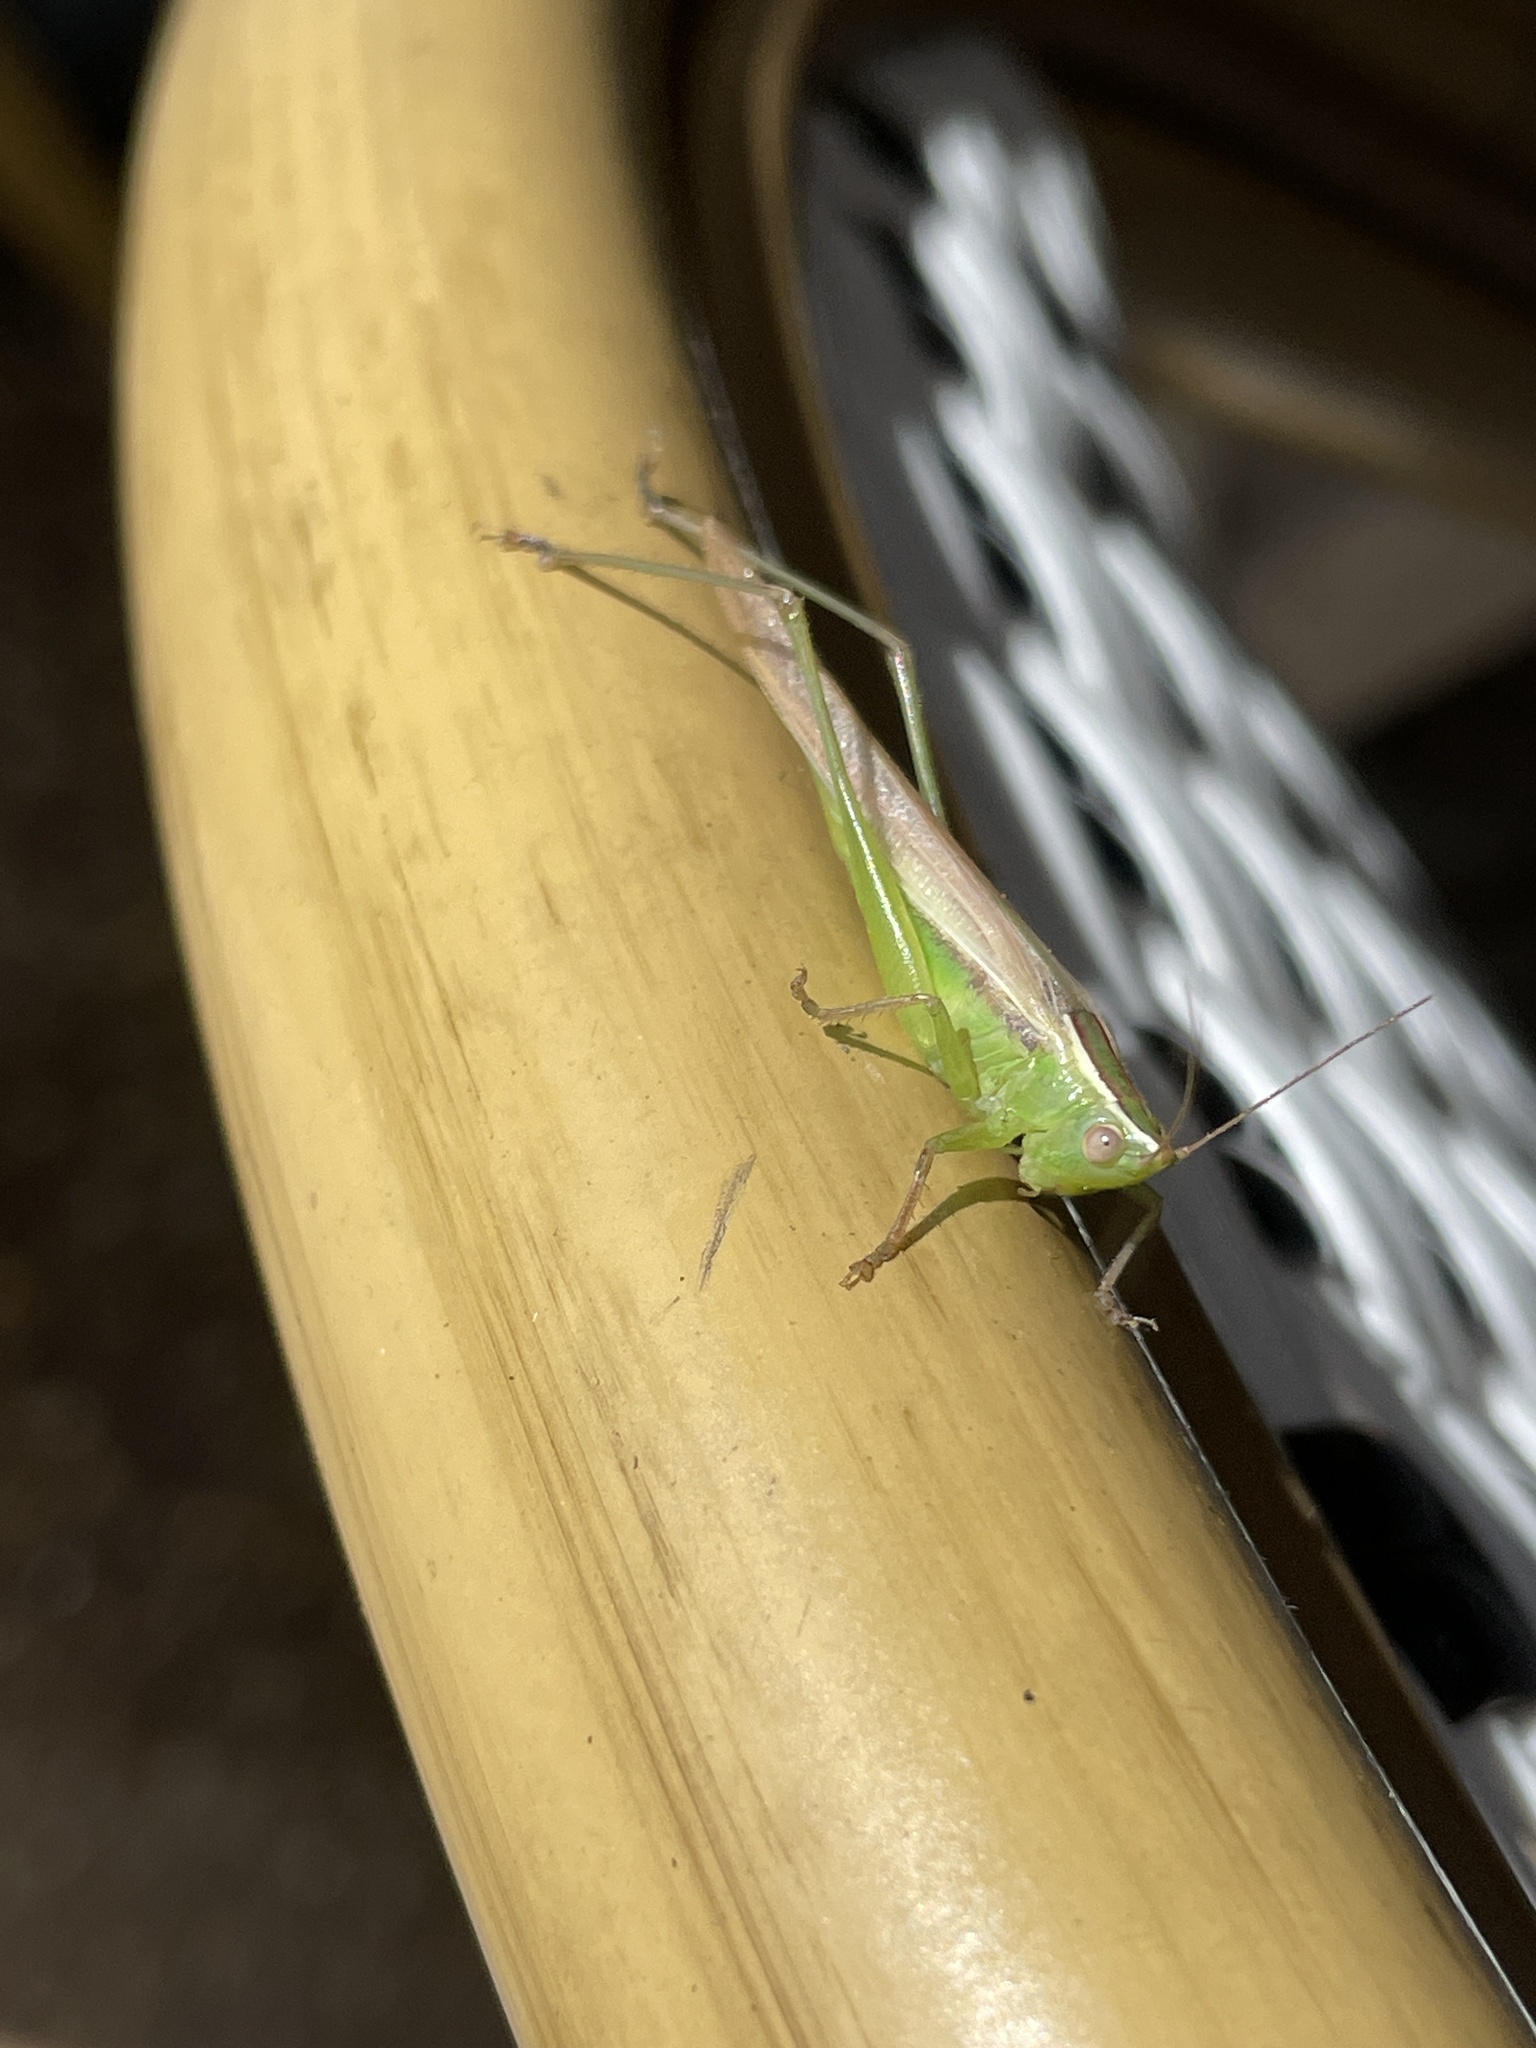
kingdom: Animalia
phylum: Arthropoda
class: Insecta
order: Orthoptera
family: Tettigoniidae
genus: Conocephalus
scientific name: Conocephalus upoluensis
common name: Upolu meadow katydid
